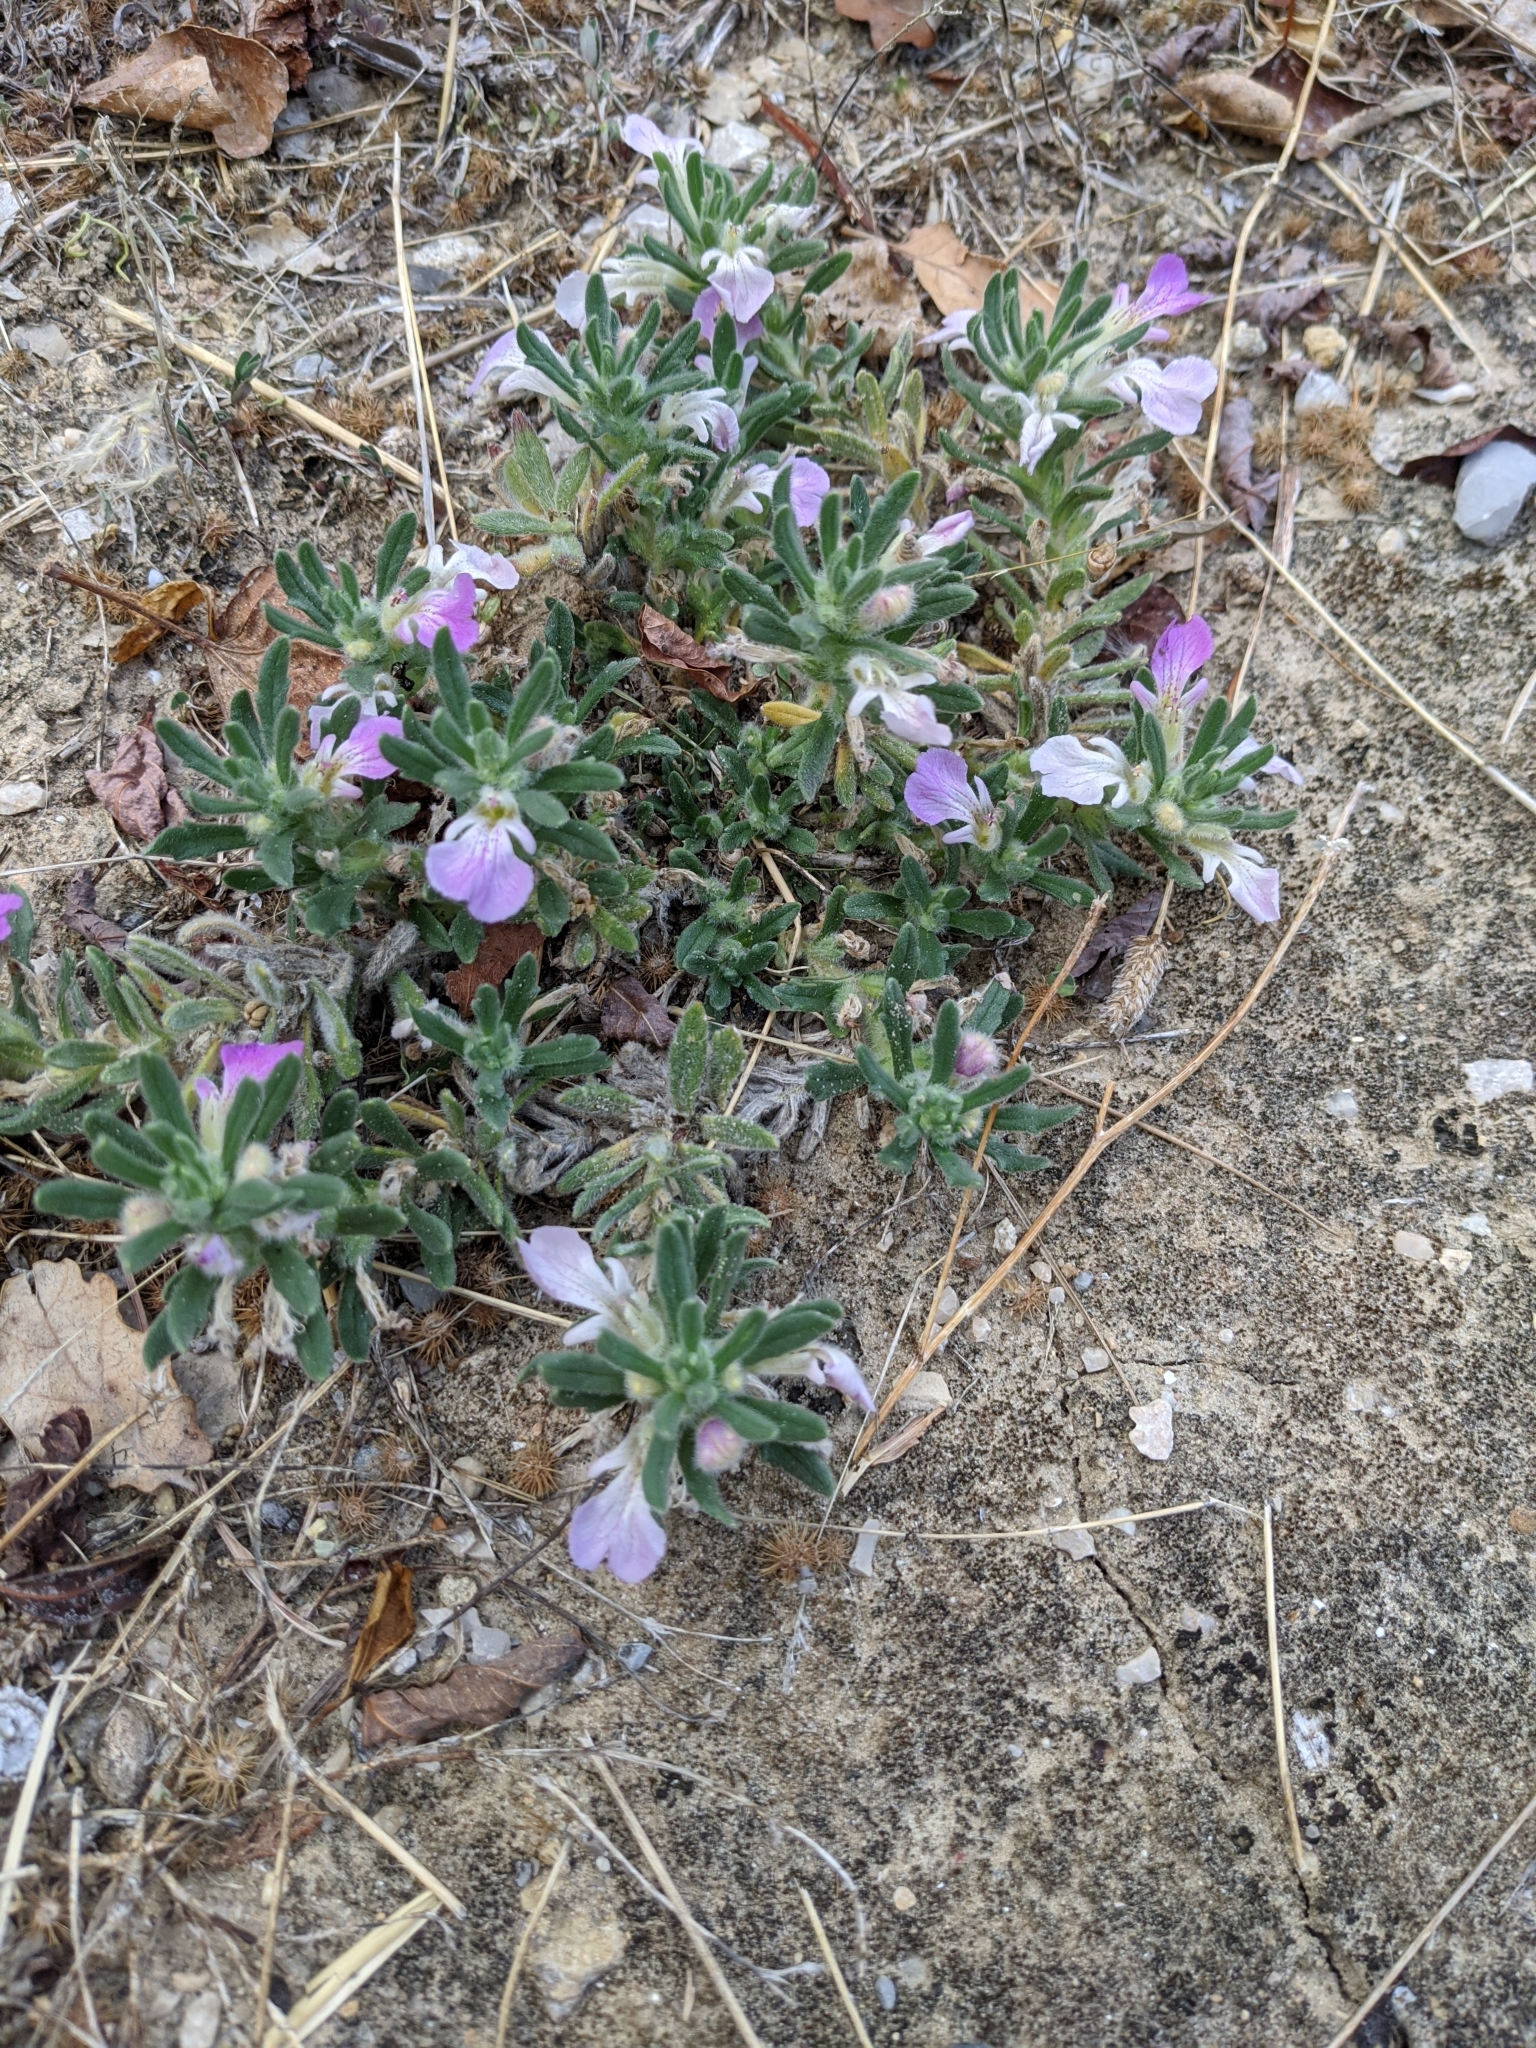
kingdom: Plantae
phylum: Tracheophyta
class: Magnoliopsida
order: Lamiales
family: Lamiaceae
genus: Ajuga
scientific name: Ajuga iva
